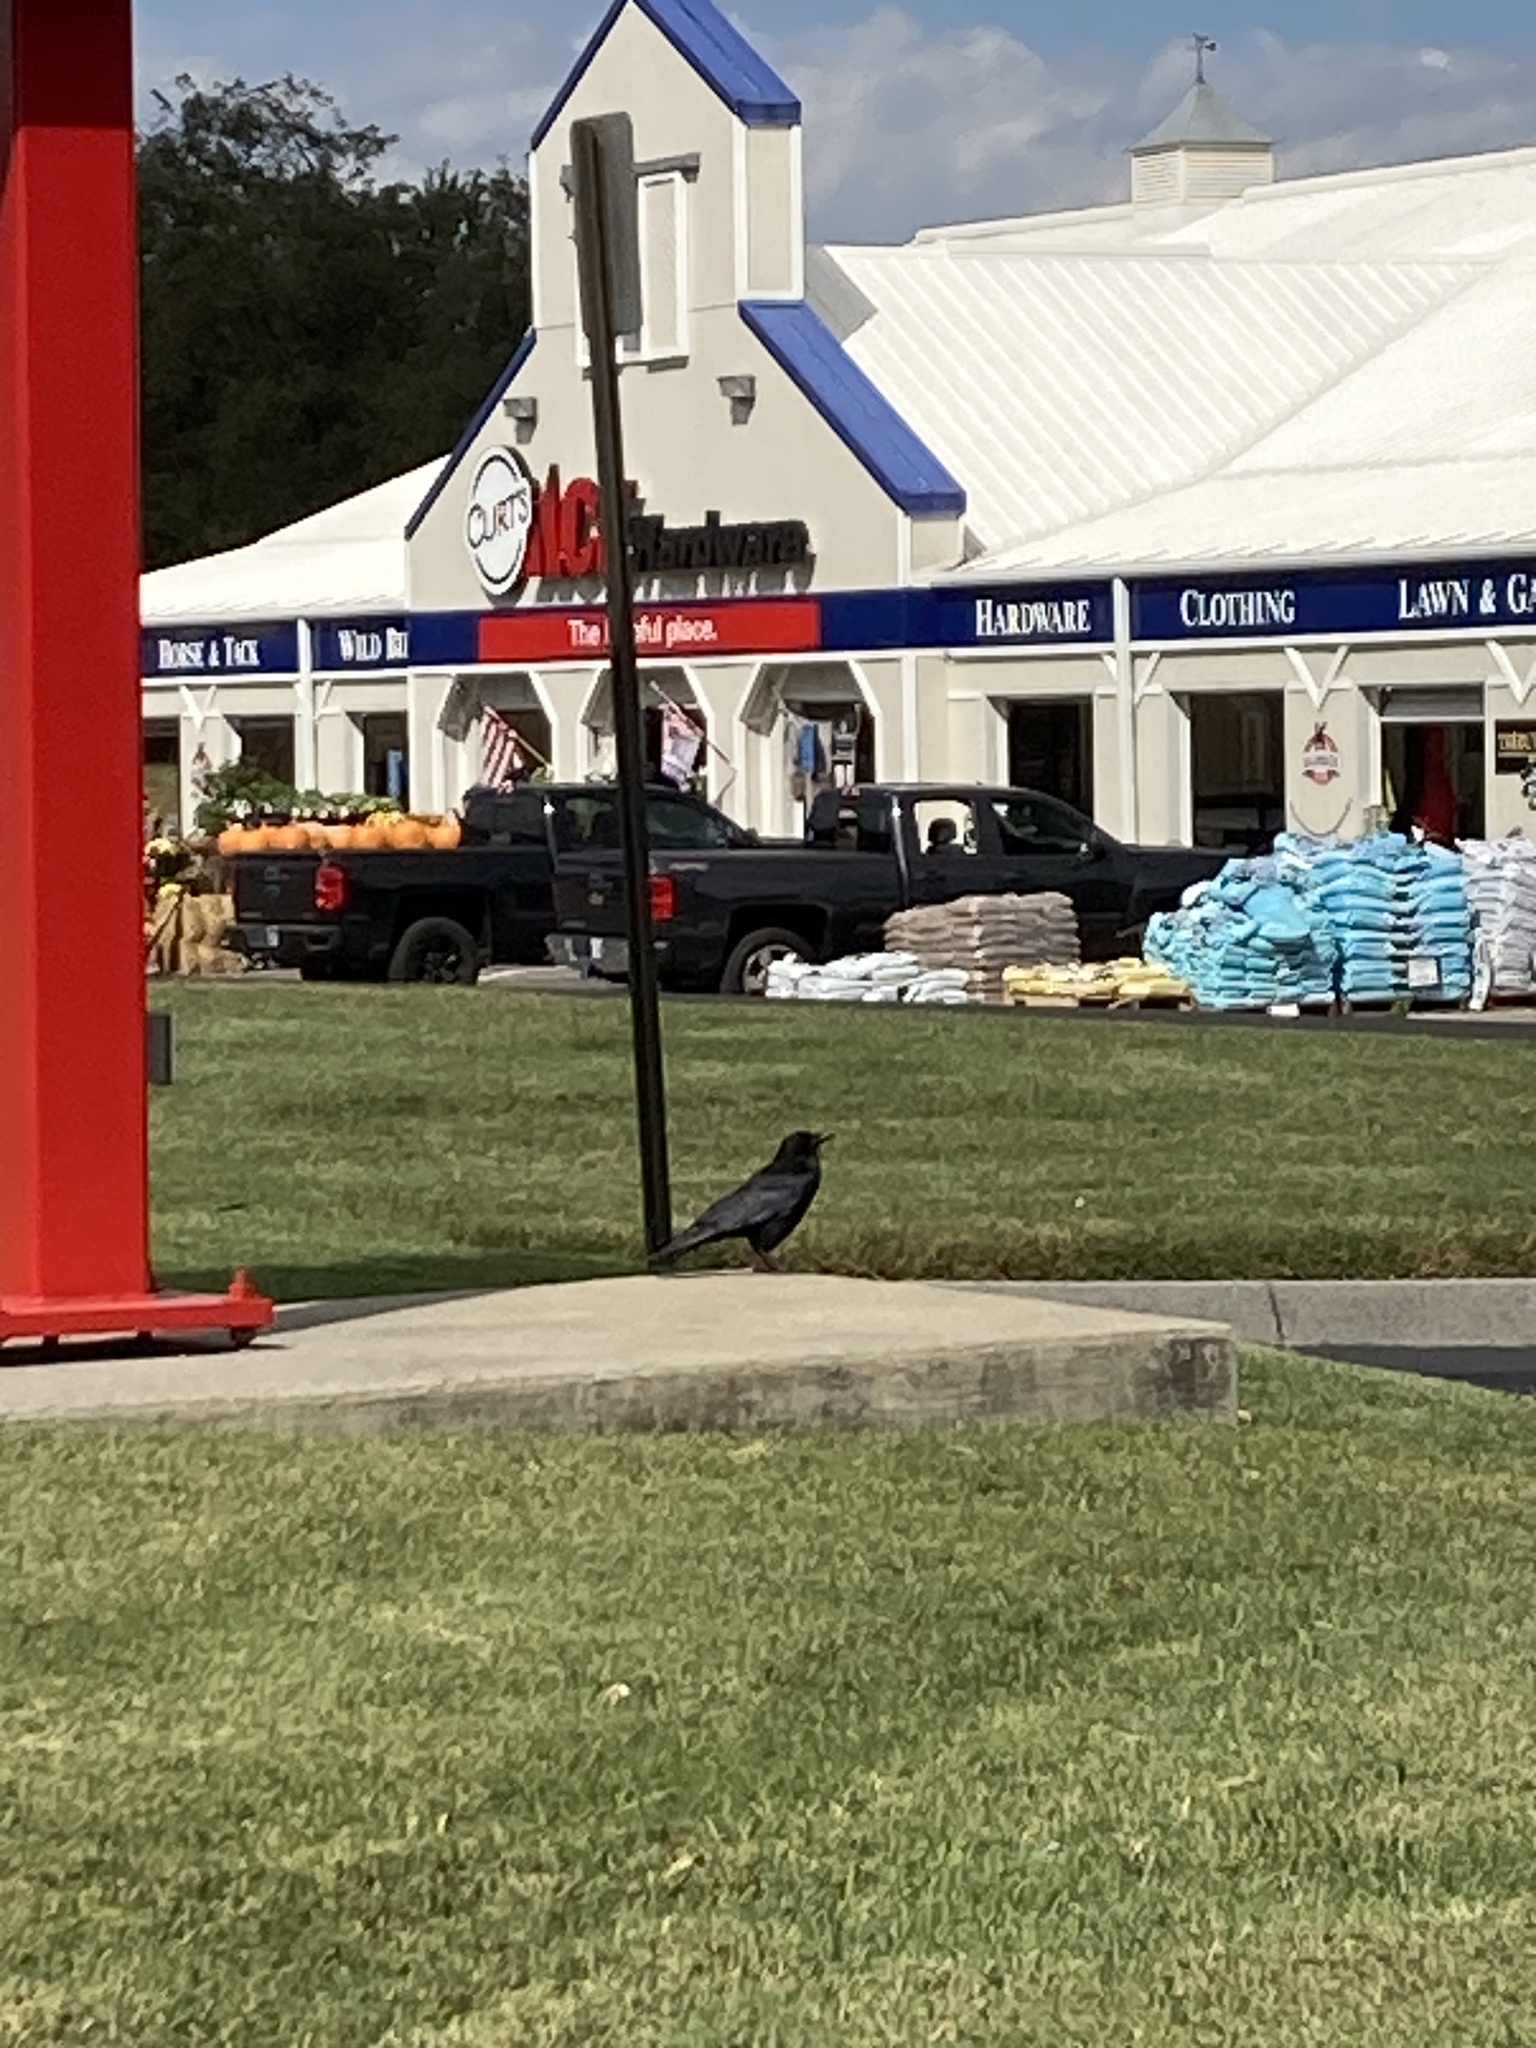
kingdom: Animalia
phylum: Chordata
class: Aves
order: Passeriformes
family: Corvidae
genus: Corvus
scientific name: Corvus brachyrhynchos
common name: American crow
